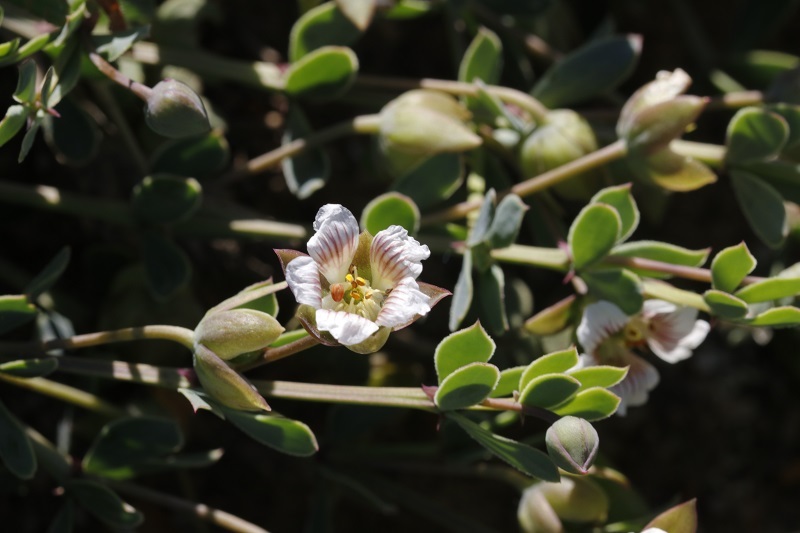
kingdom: Plantae
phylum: Tracheophyta
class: Magnoliopsida
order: Zygophyllales
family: Zygophyllaceae
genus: Roepera
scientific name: Roepera sessilifolia
